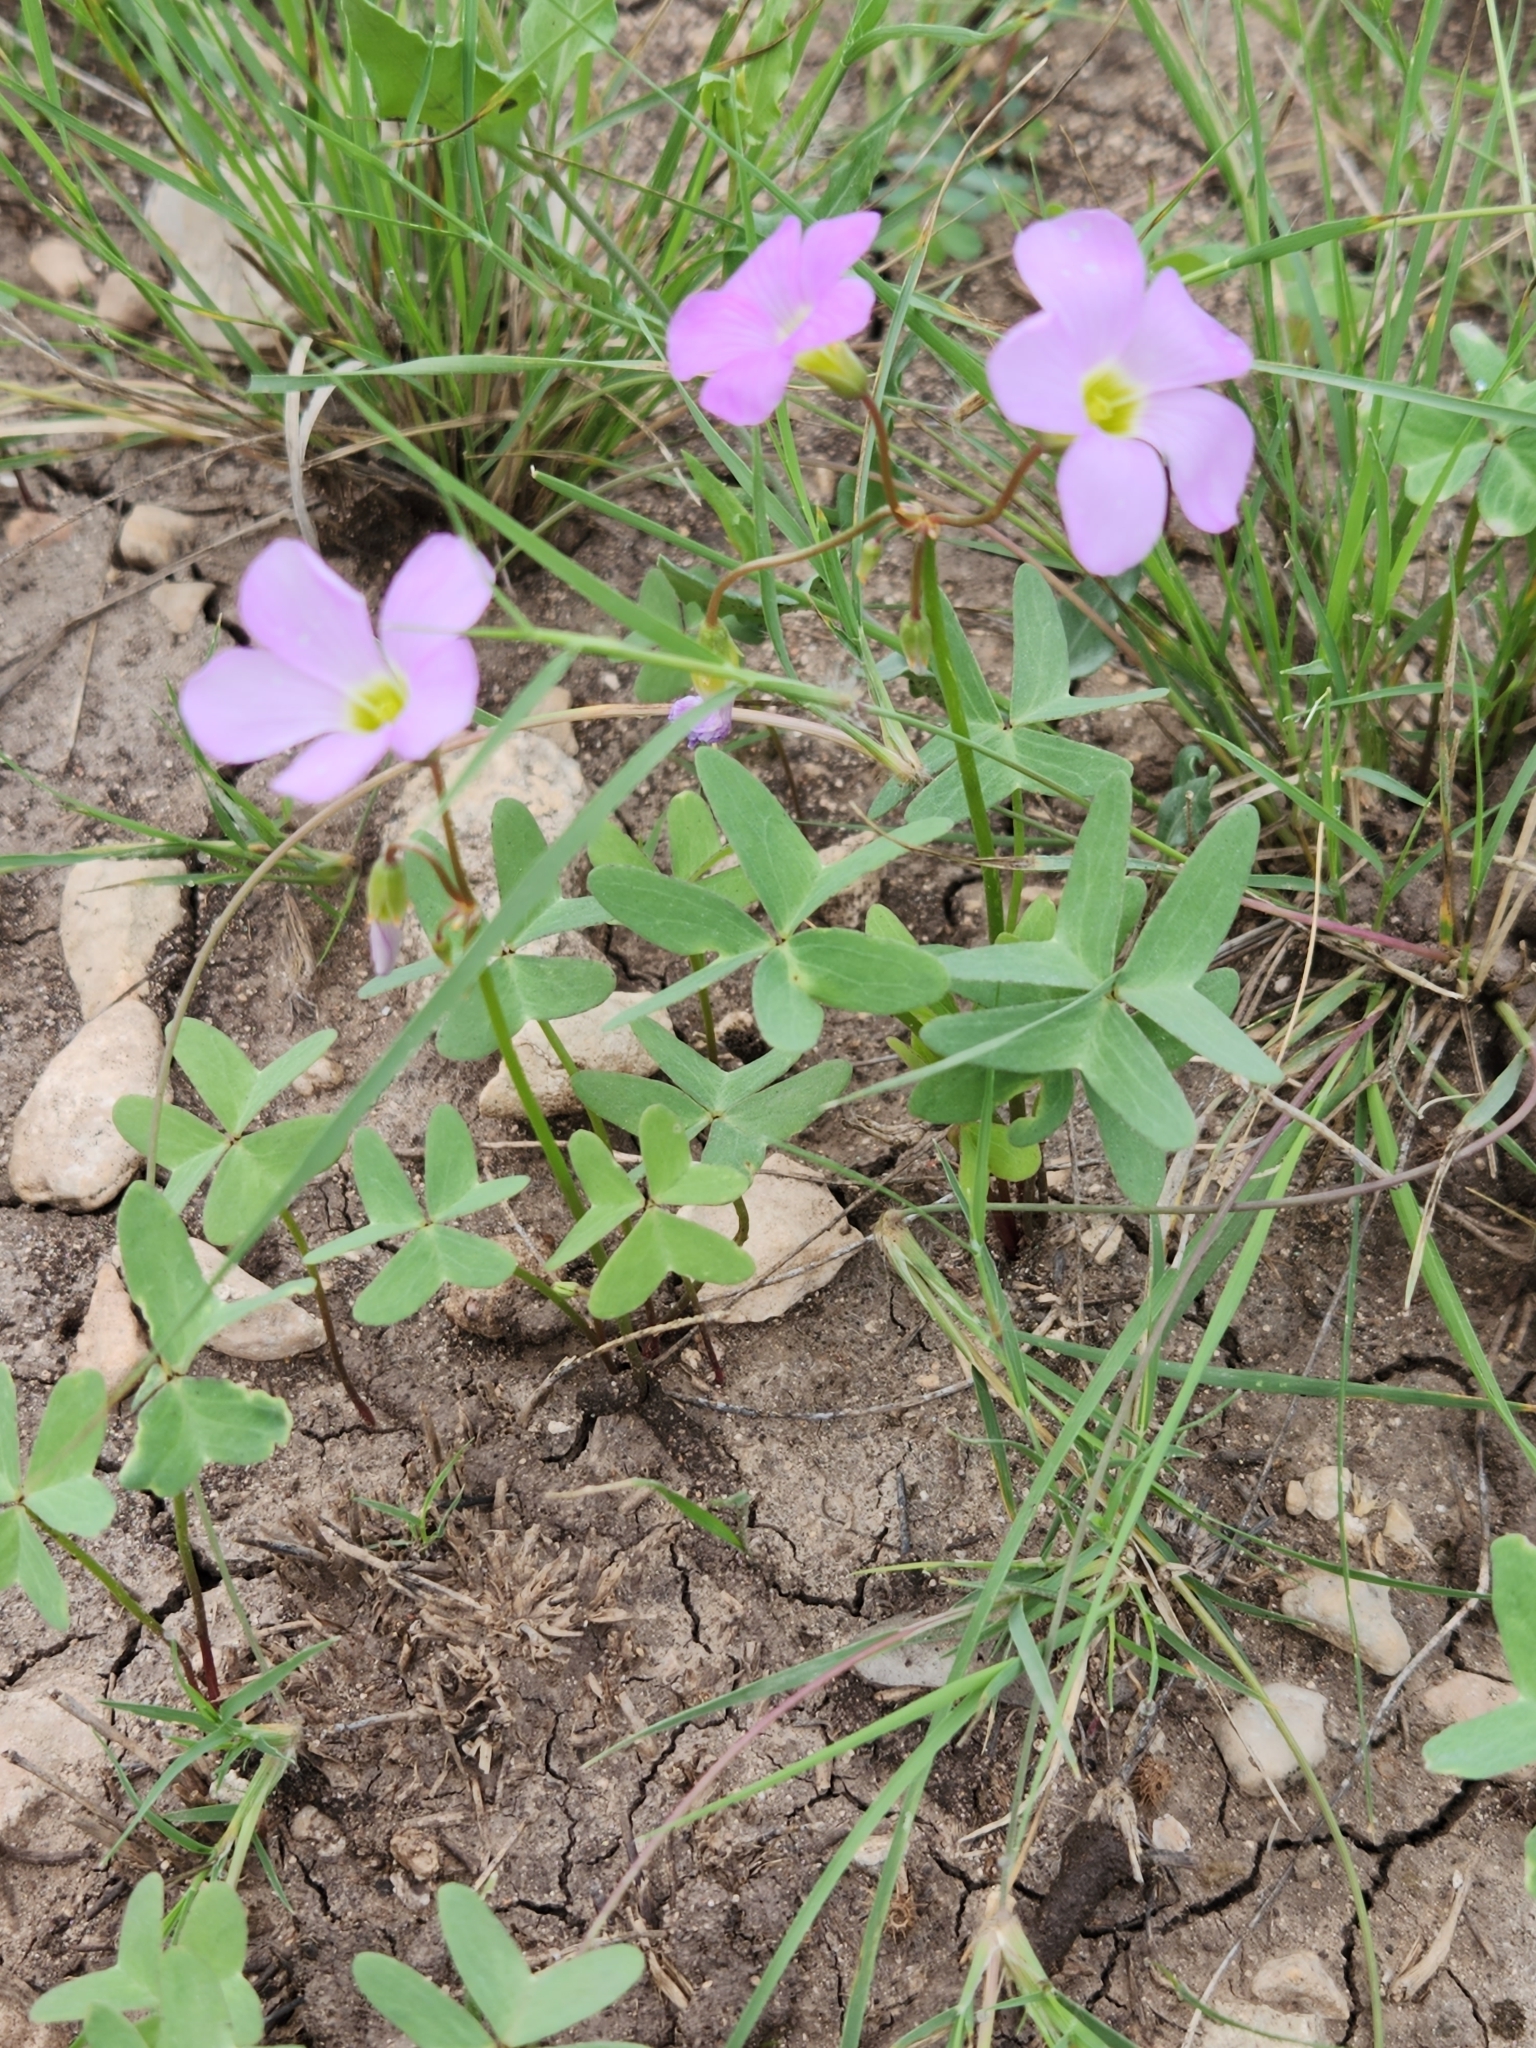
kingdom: Plantae
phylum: Tracheophyta
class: Magnoliopsida
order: Oxalidales
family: Oxalidaceae
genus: Oxalis
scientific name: Oxalis drummondii
